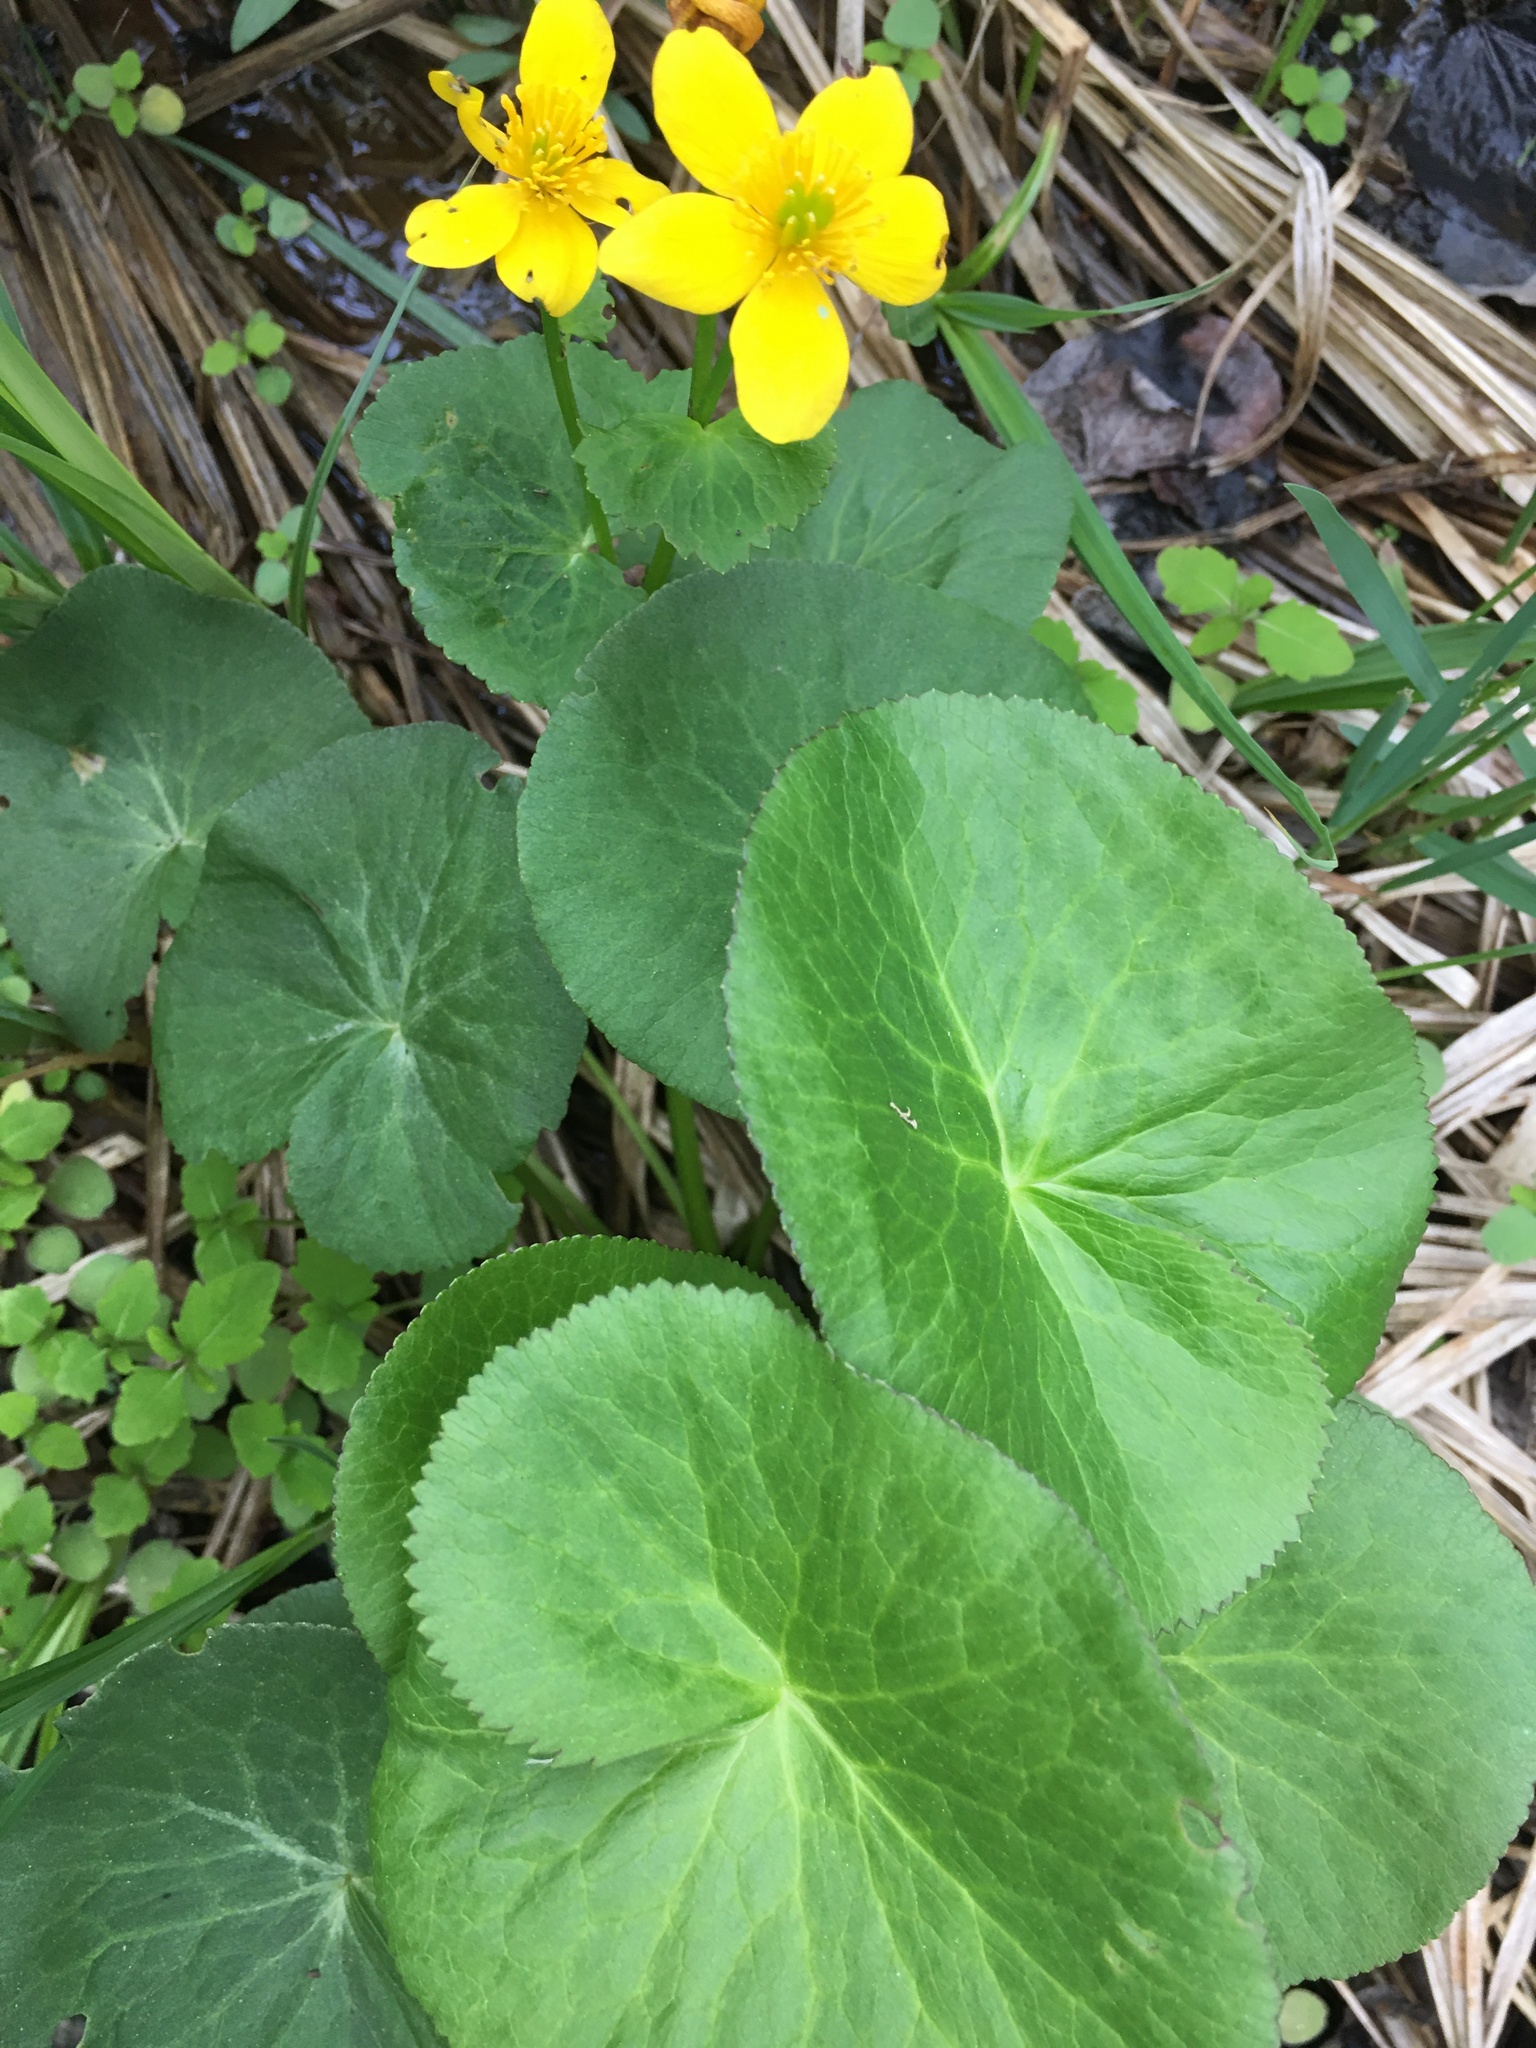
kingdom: Plantae
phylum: Tracheophyta
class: Magnoliopsida
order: Ranunculales
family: Ranunculaceae
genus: Caltha
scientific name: Caltha palustris
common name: Marsh marigold
